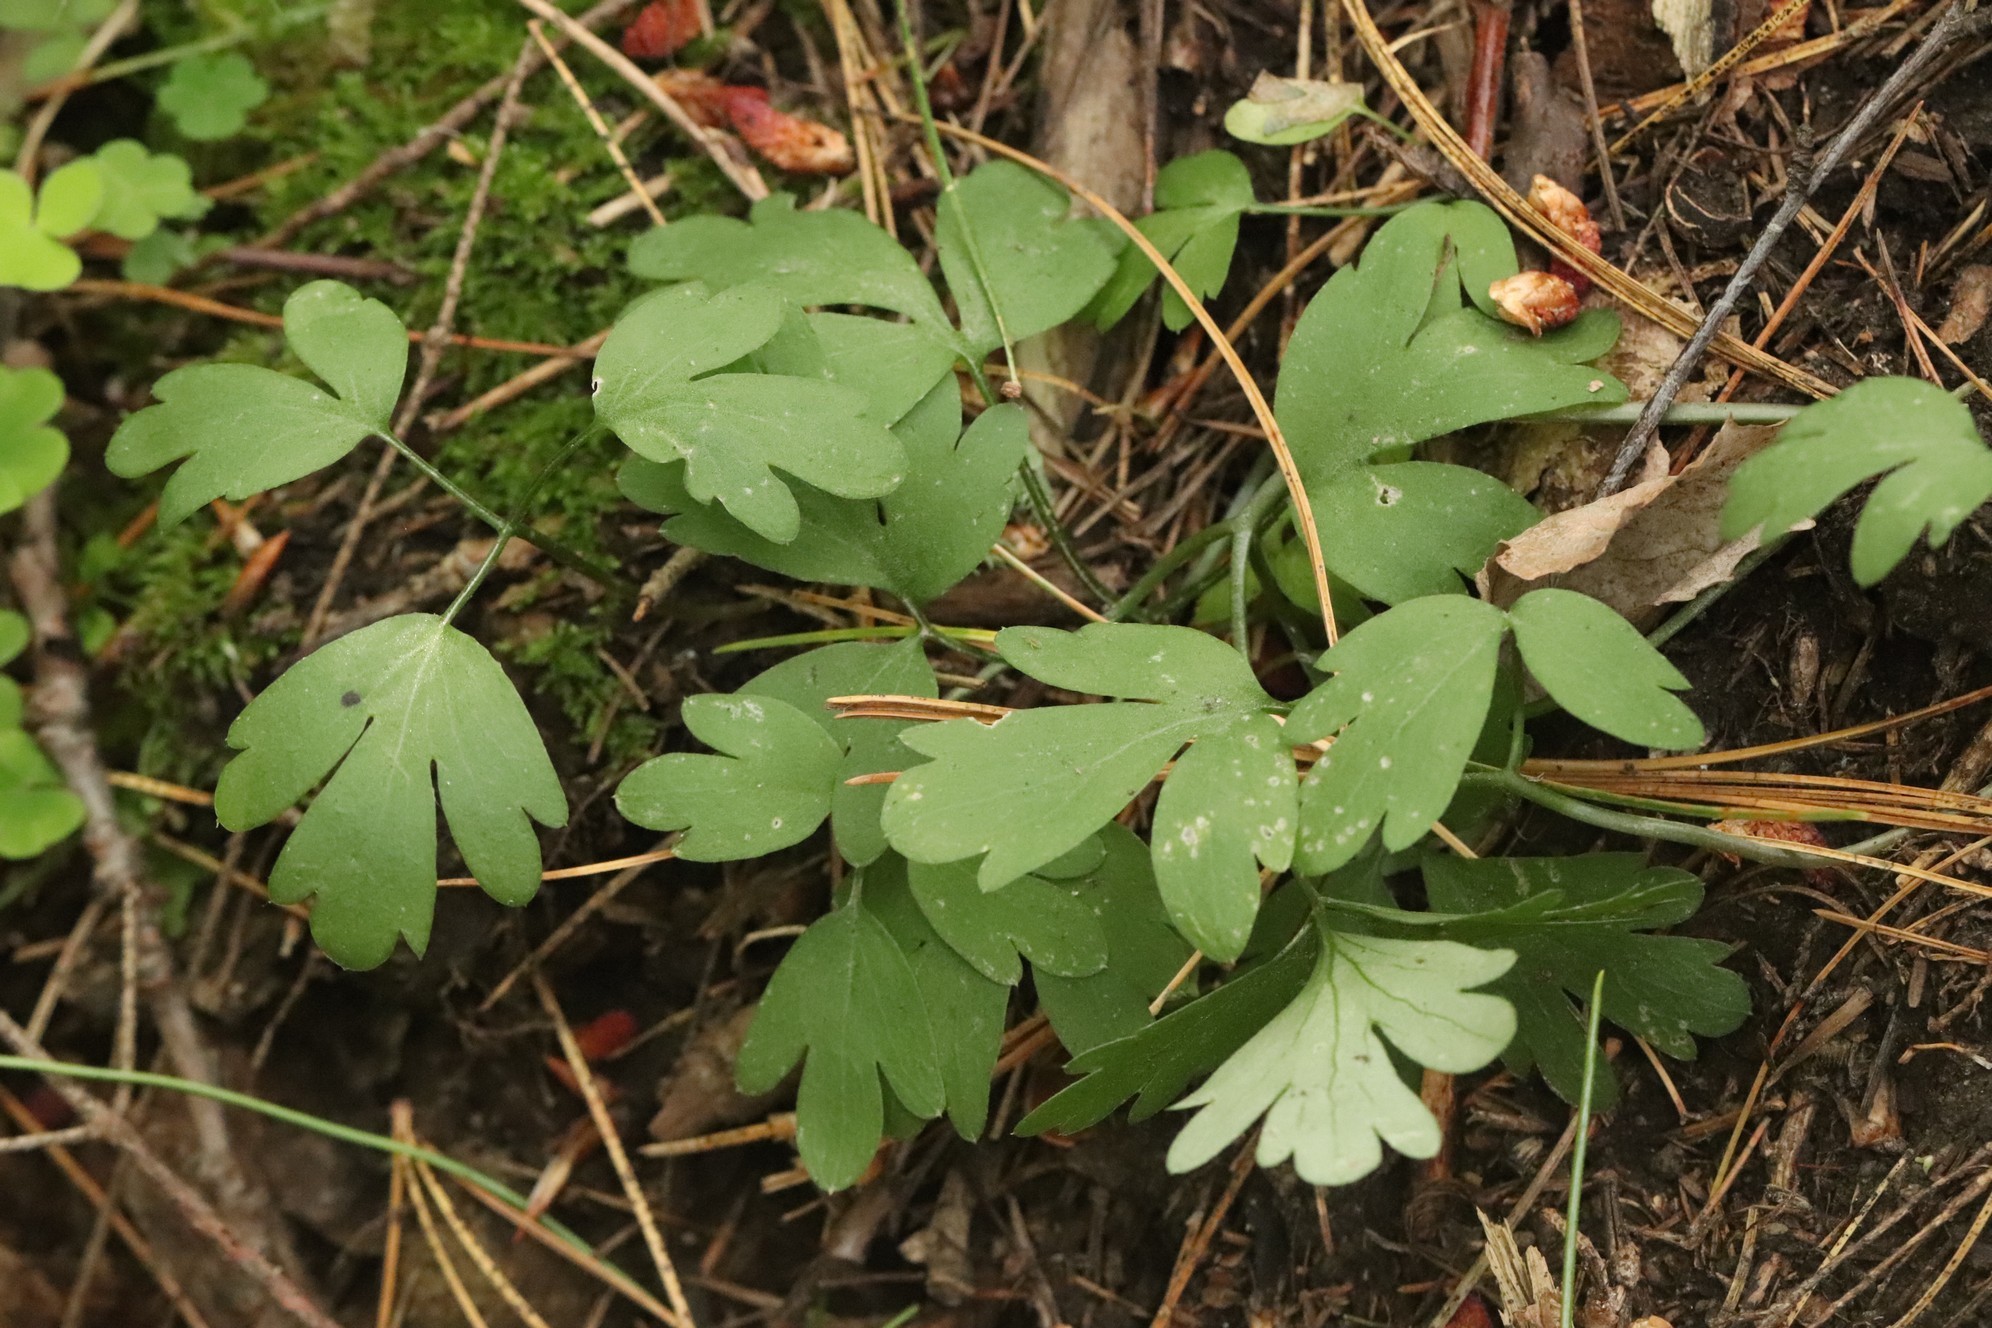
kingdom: Plantae
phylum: Tracheophyta
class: Magnoliopsida
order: Dipsacales
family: Viburnaceae
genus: Adoxa
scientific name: Adoxa moschatellina
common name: Moschatel
